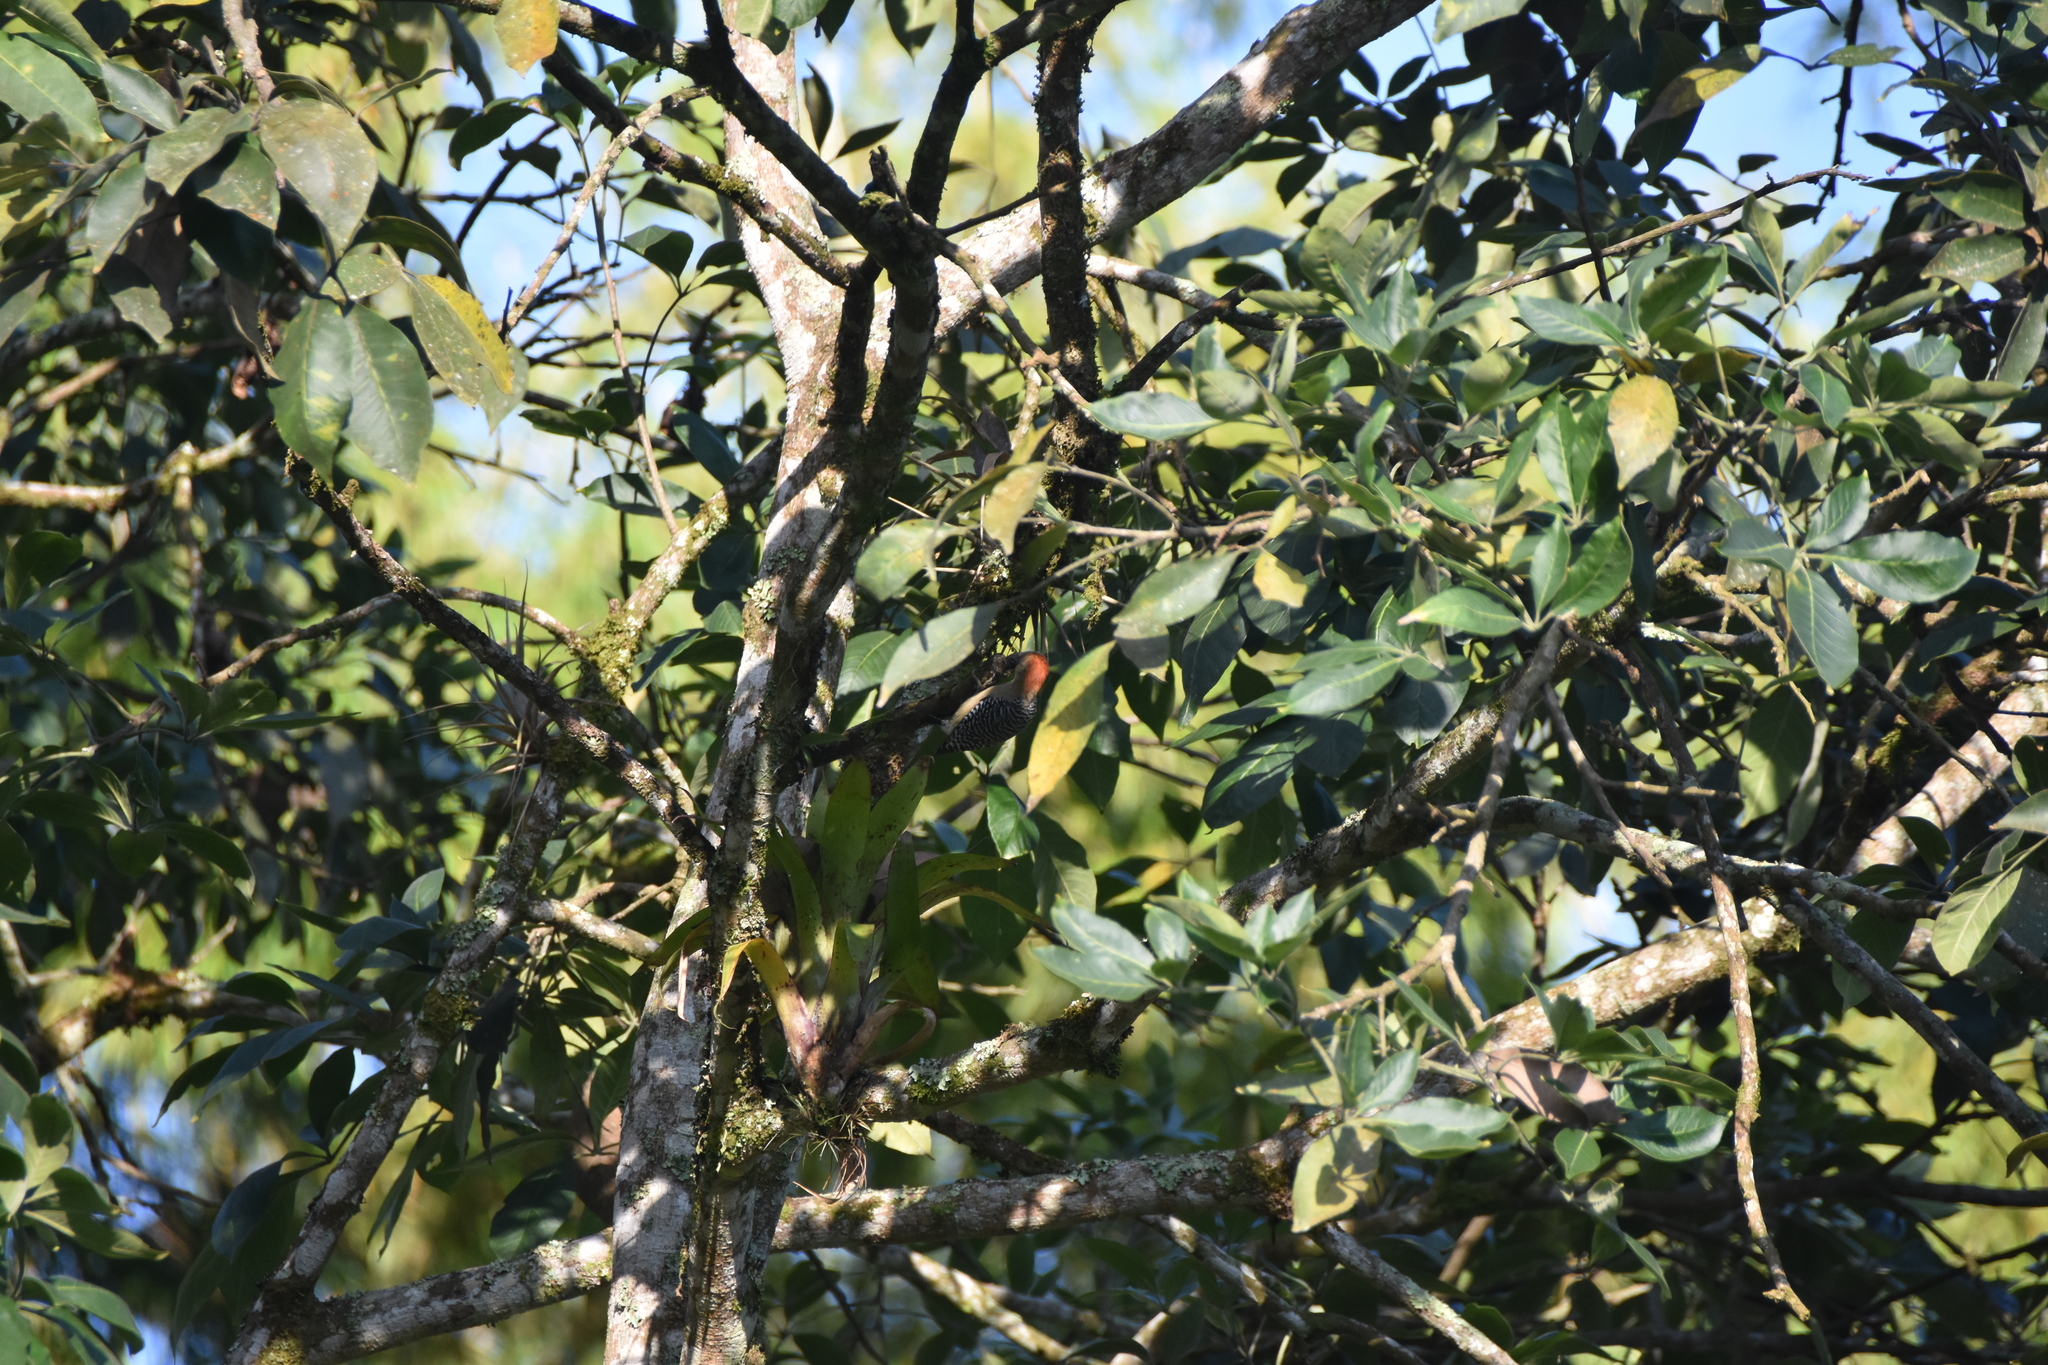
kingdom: Animalia
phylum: Chordata
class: Aves
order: Piciformes
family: Picidae
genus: Melanerpes
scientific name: Melanerpes rubricapillus
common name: Red-crowned woodpecker
